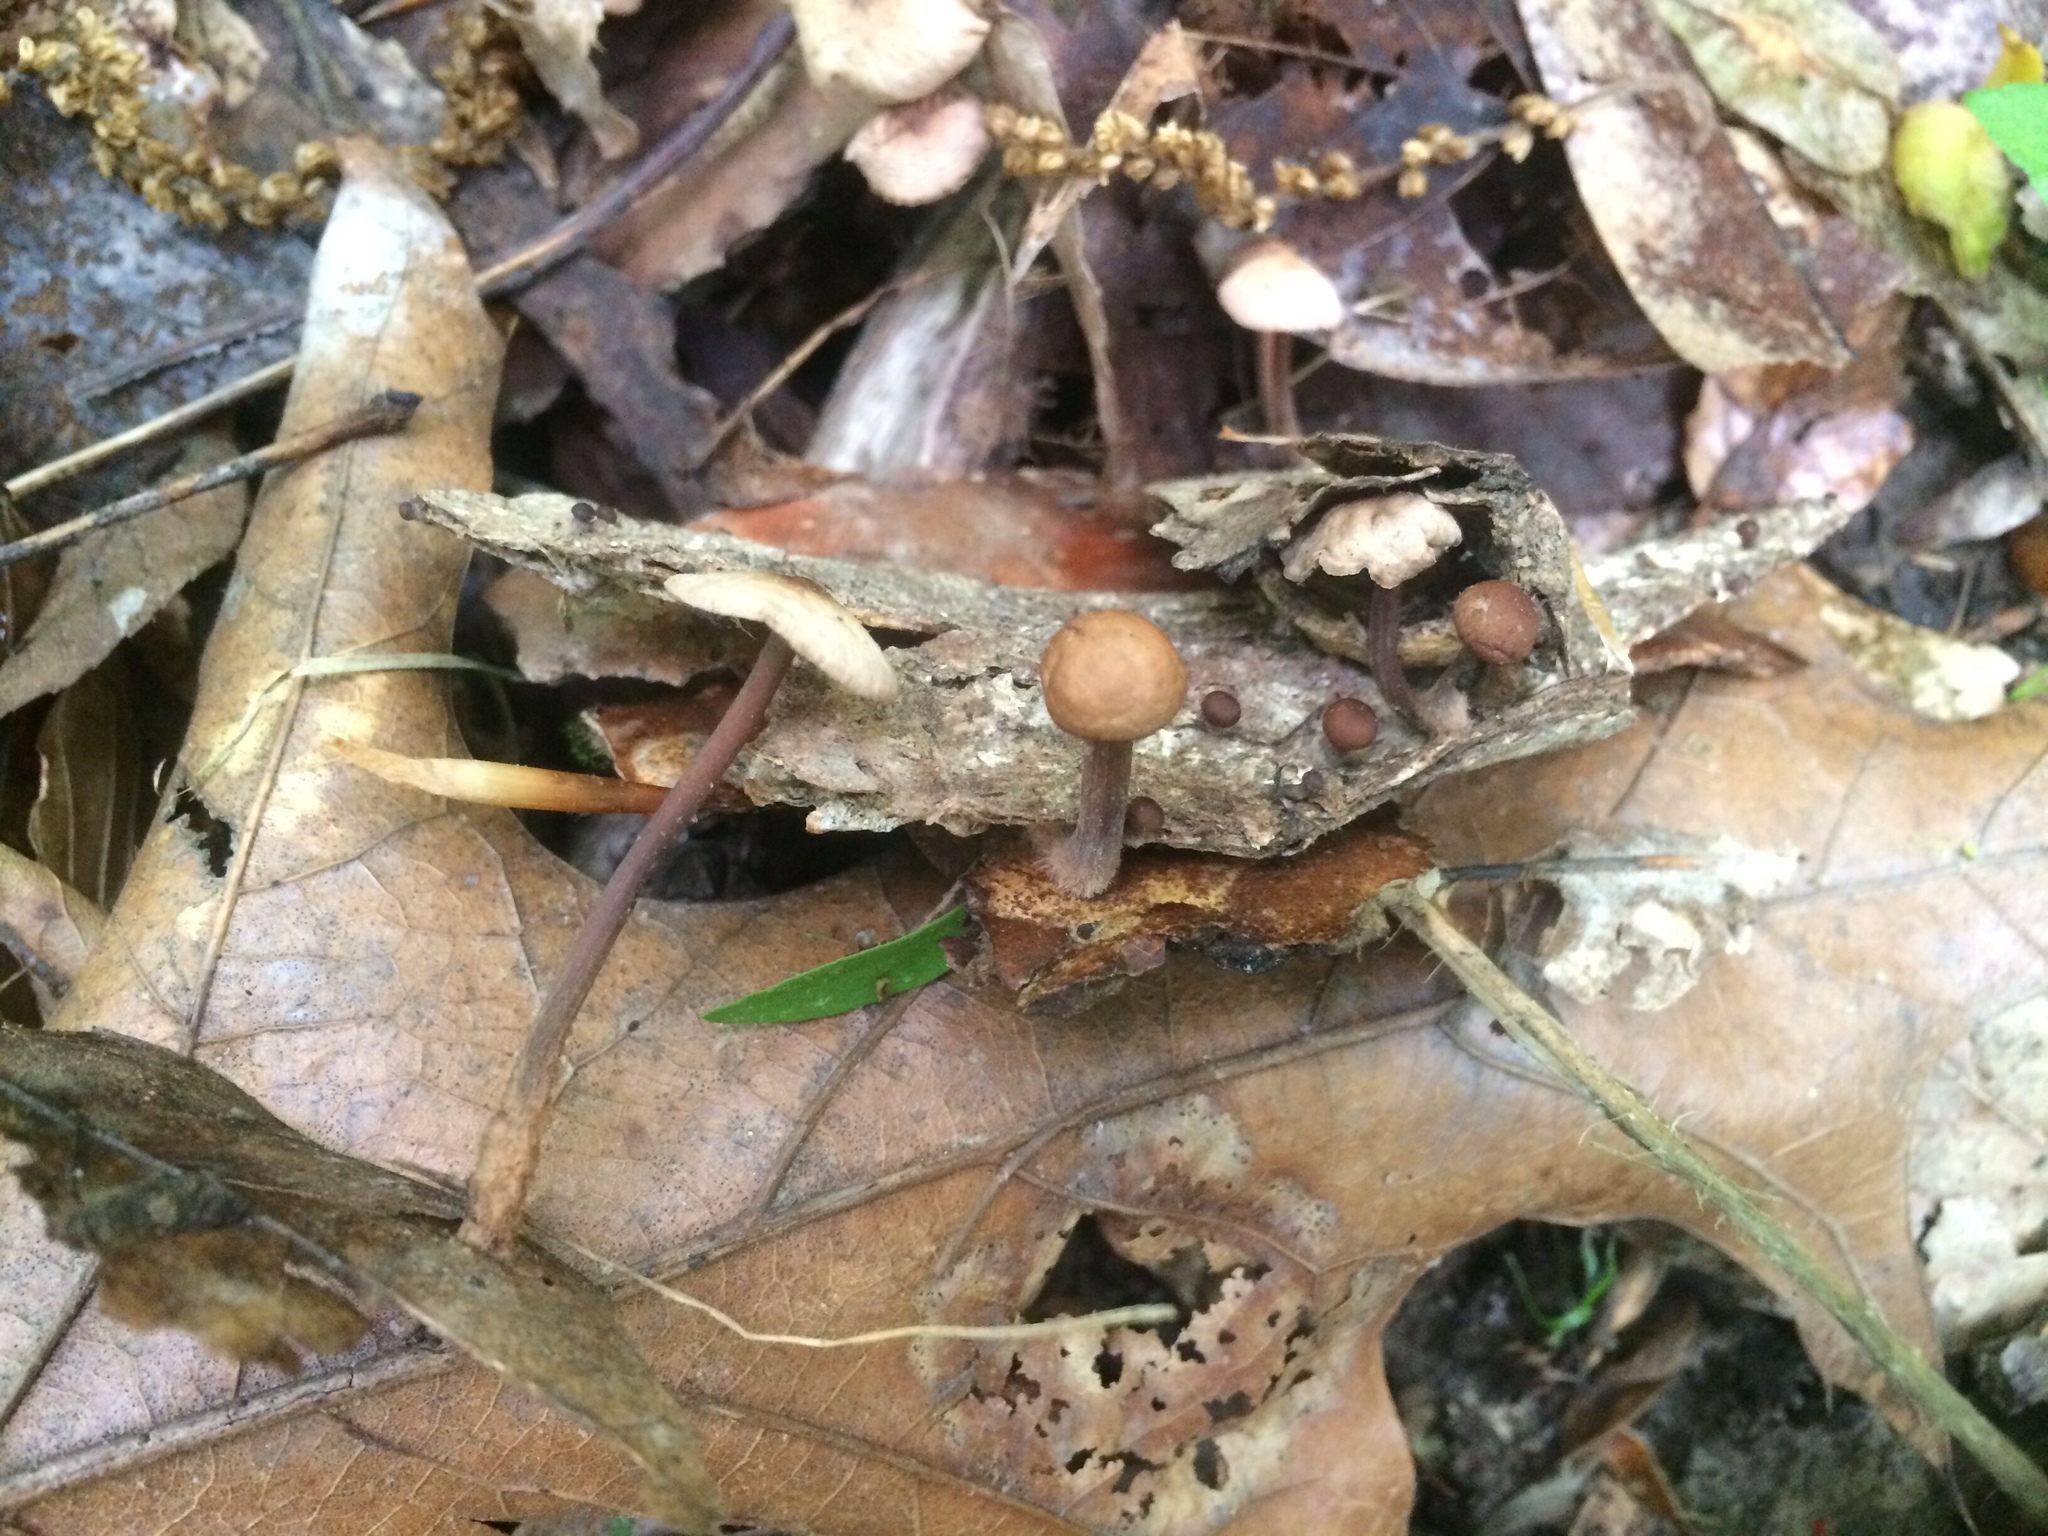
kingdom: Fungi
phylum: Basidiomycota
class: Agaricomycetes
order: Agaricales
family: Omphalotaceae
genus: Gymnopus
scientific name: Gymnopus semihirtipes
